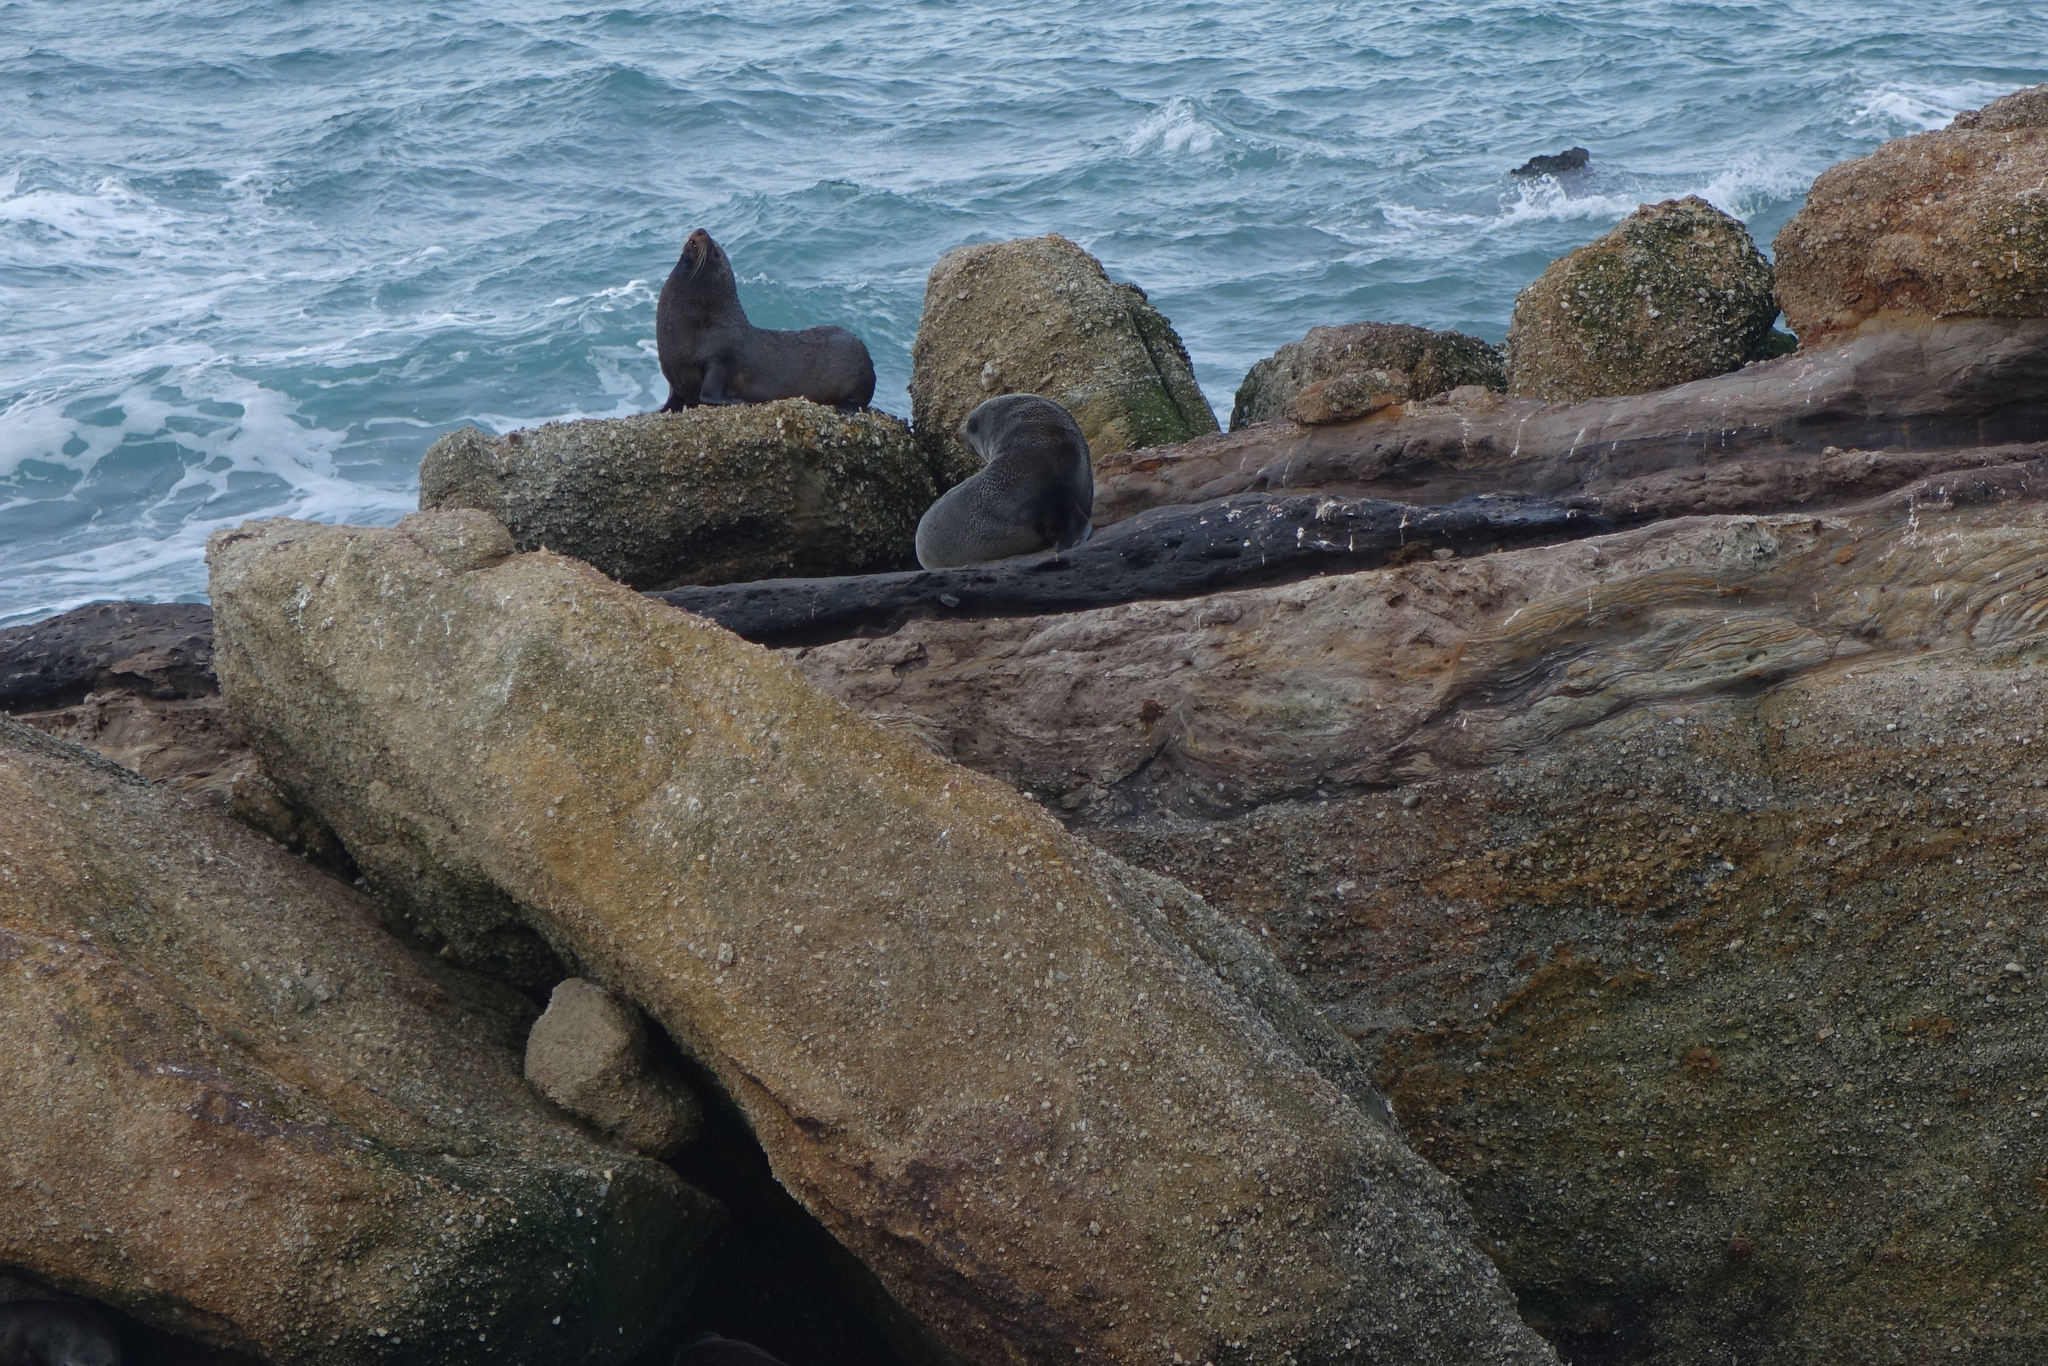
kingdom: Animalia
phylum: Chordata
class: Mammalia
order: Carnivora
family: Otariidae
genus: Arctocephalus
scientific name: Arctocephalus forsteri
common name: New zealand fur seal
